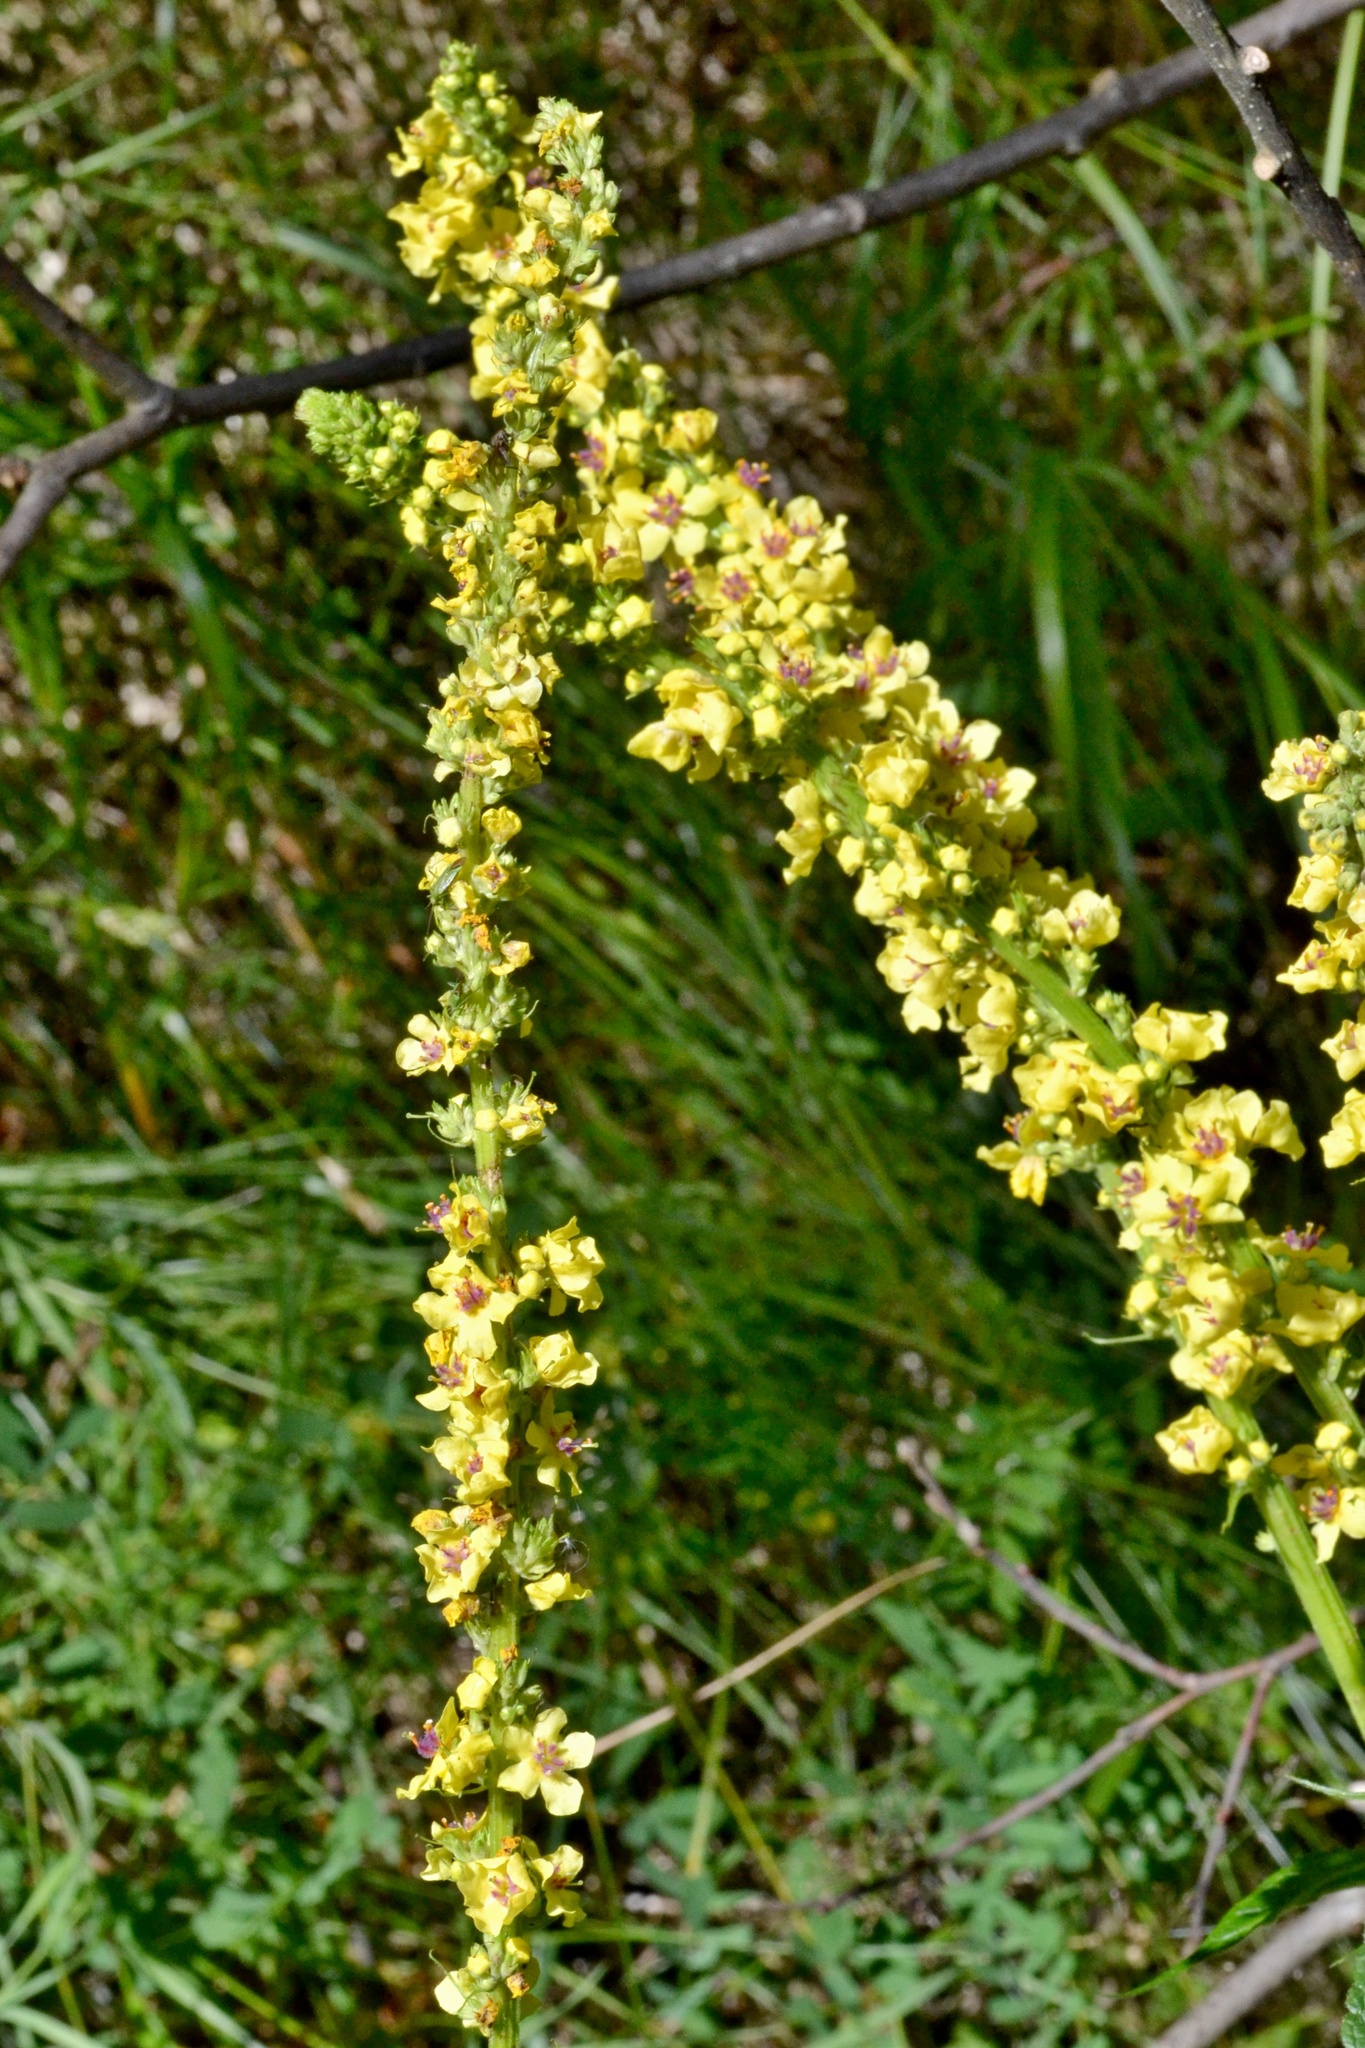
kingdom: Plantae
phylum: Tracheophyta
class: Magnoliopsida
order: Lamiales
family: Scrophulariaceae
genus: Verbascum
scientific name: Verbascum nigrum
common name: Dark mullein
